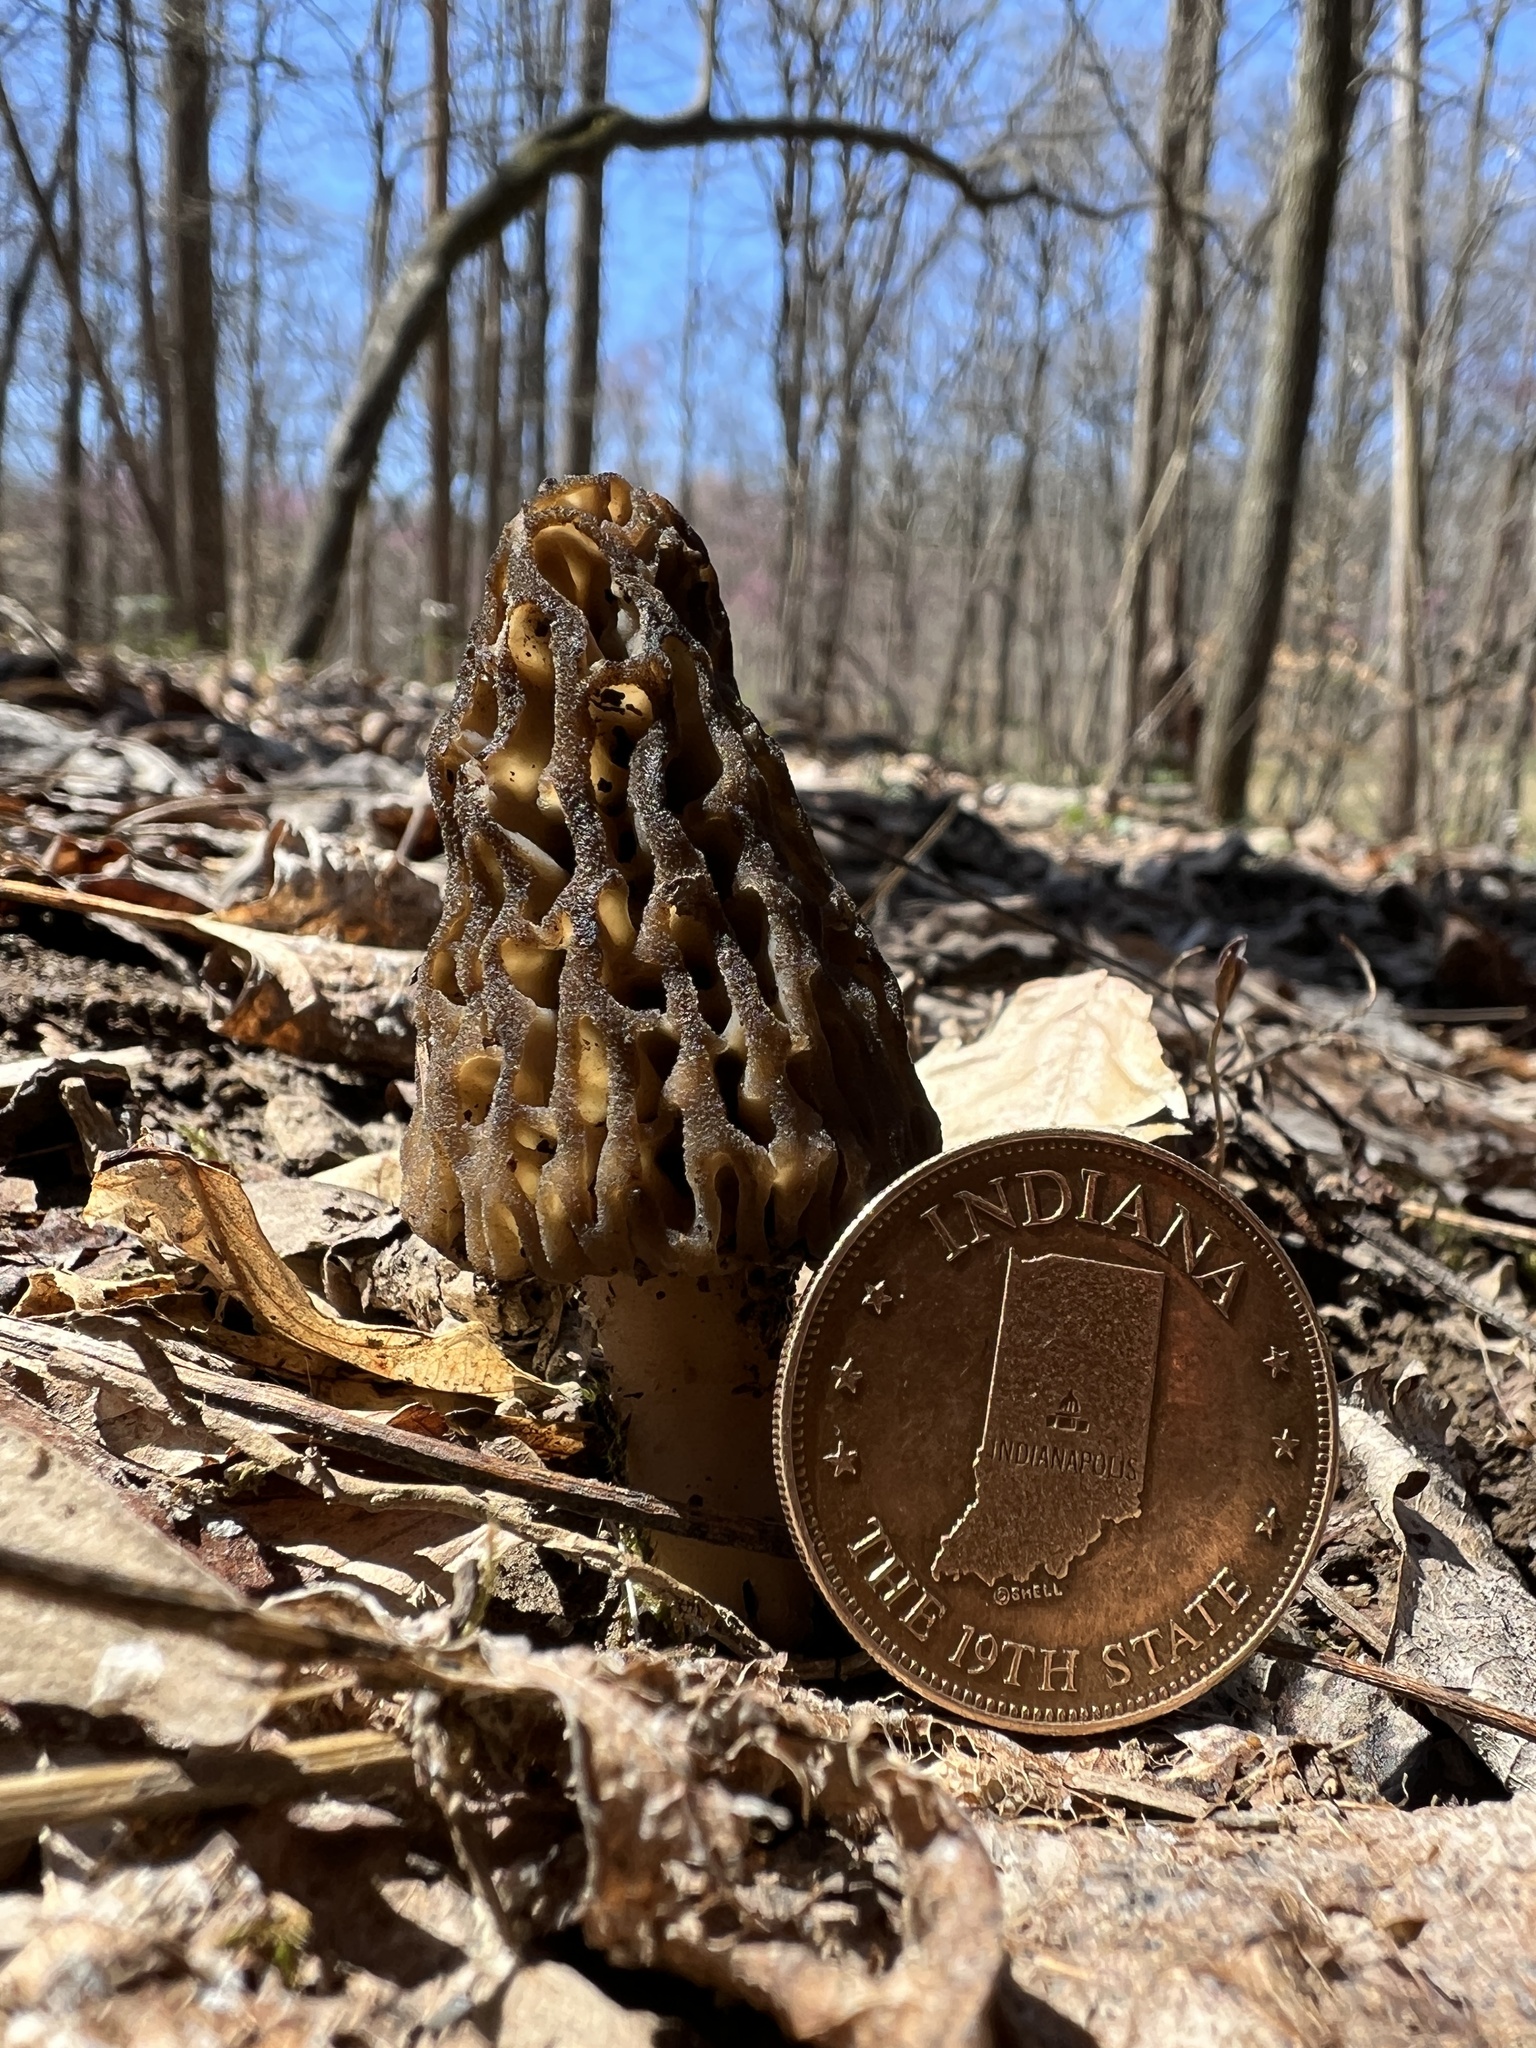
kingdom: Fungi
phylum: Ascomycota
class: Pezizomycetes
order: Pezizales
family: Morchellaceae
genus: Morchella
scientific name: Morchella angusticeps
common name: Black morel
